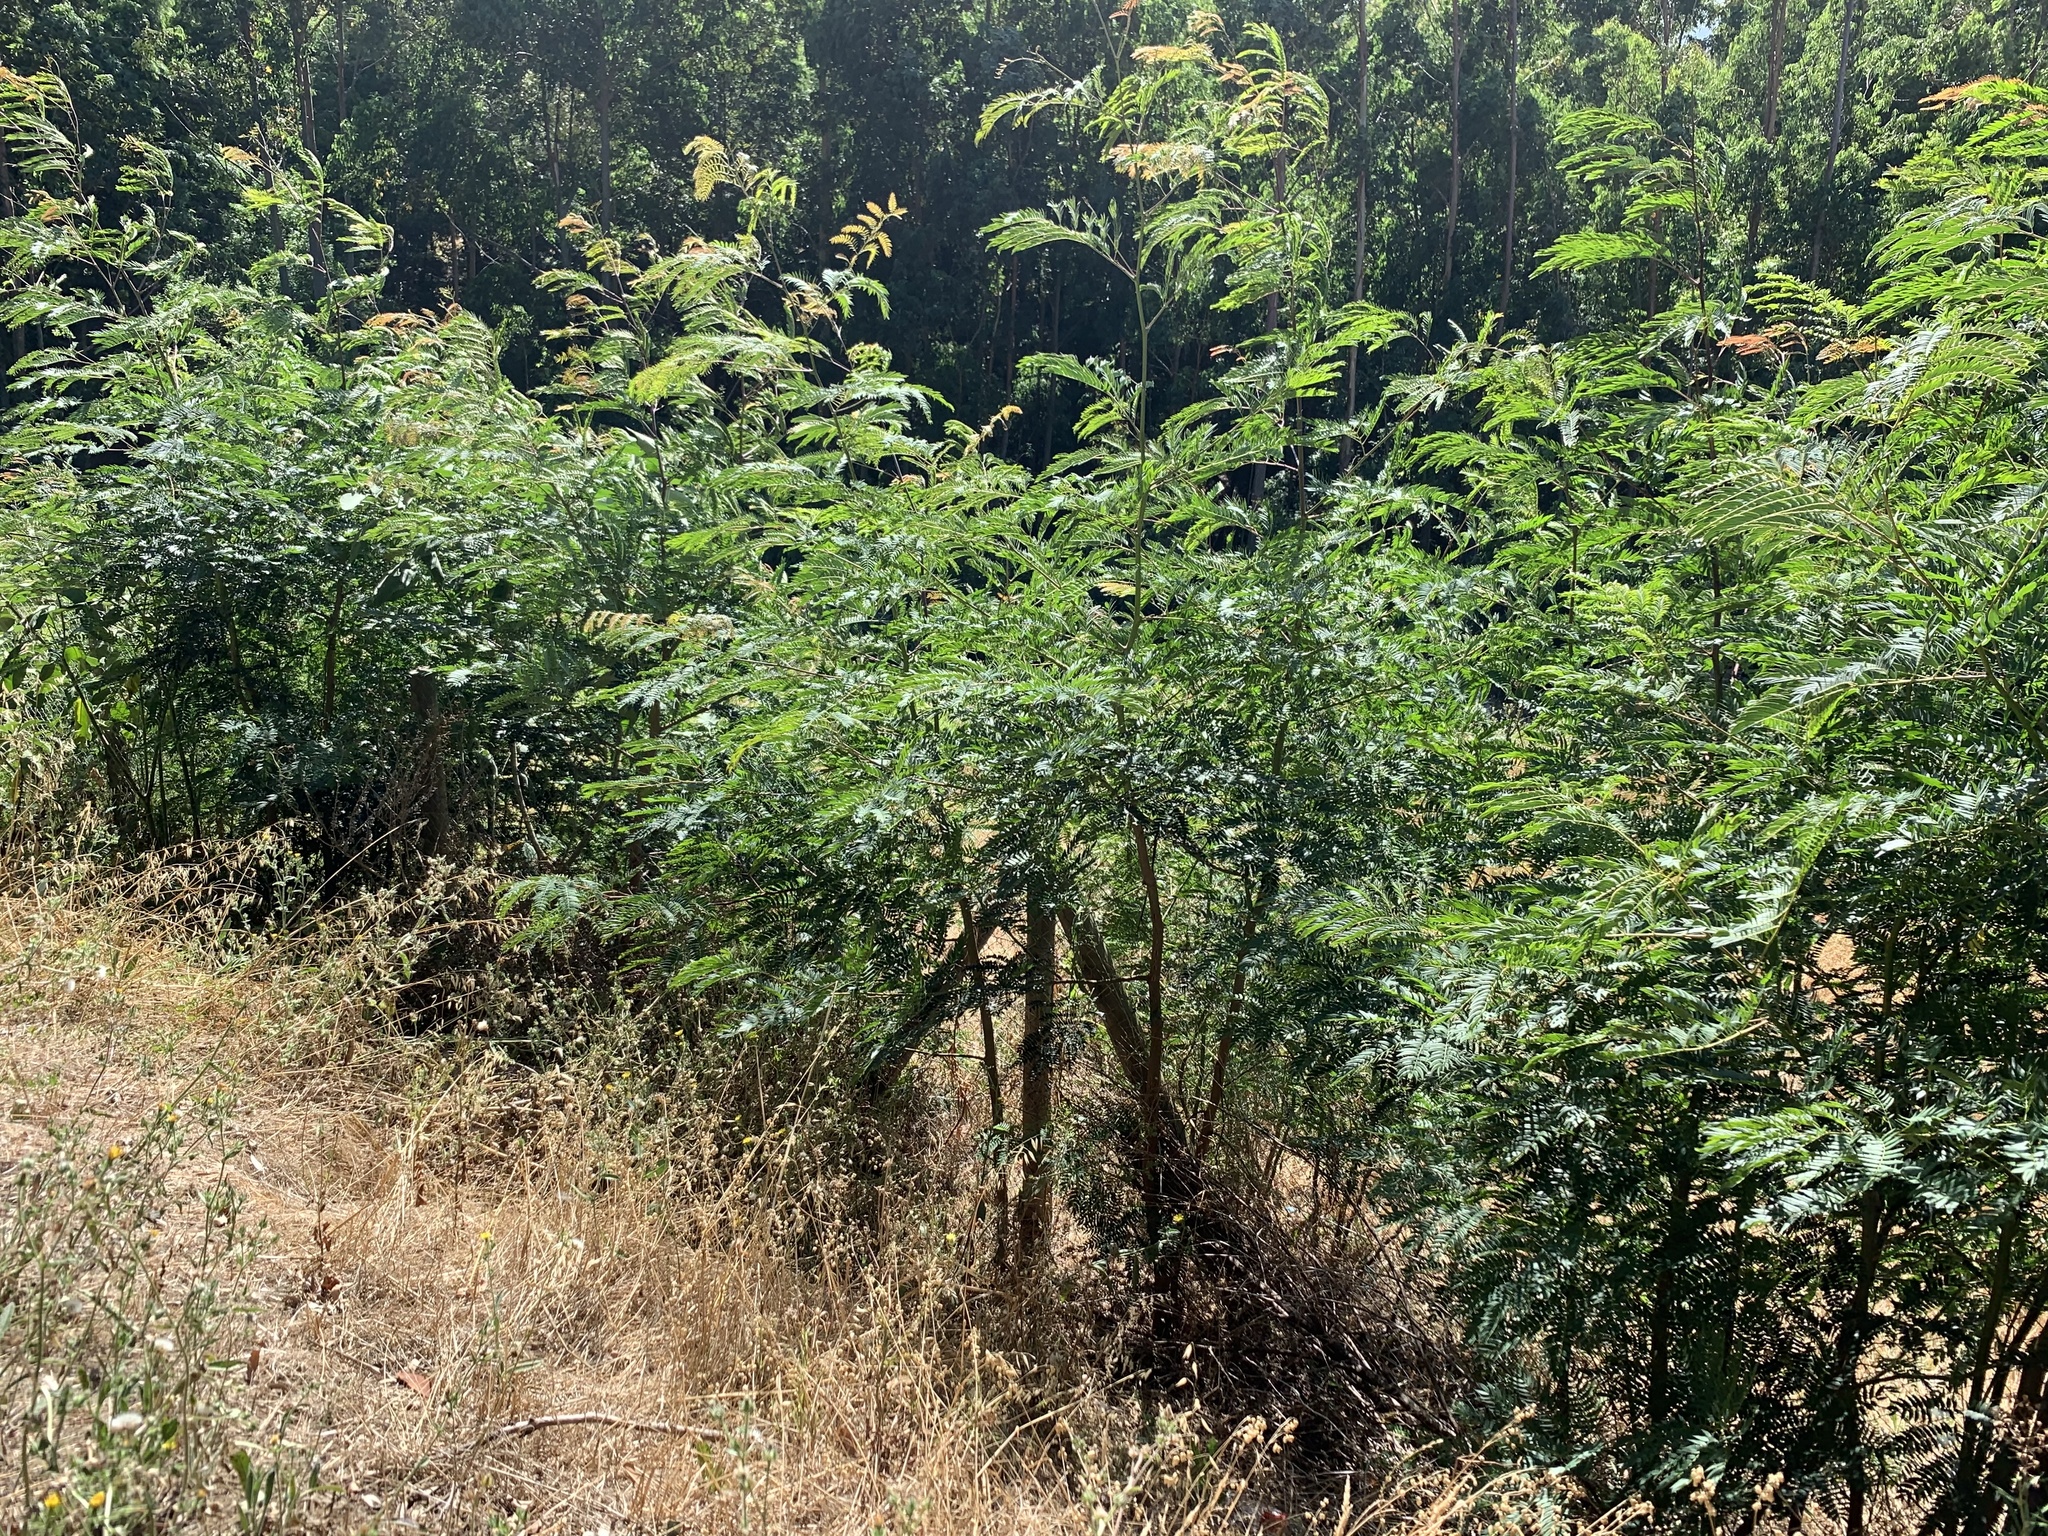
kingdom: Plantae
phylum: Tracheophyta
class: Magnoliopsida
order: Fabales
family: Fabaceae
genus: Acacia
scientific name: Acacia elata
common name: Cedar wattle
